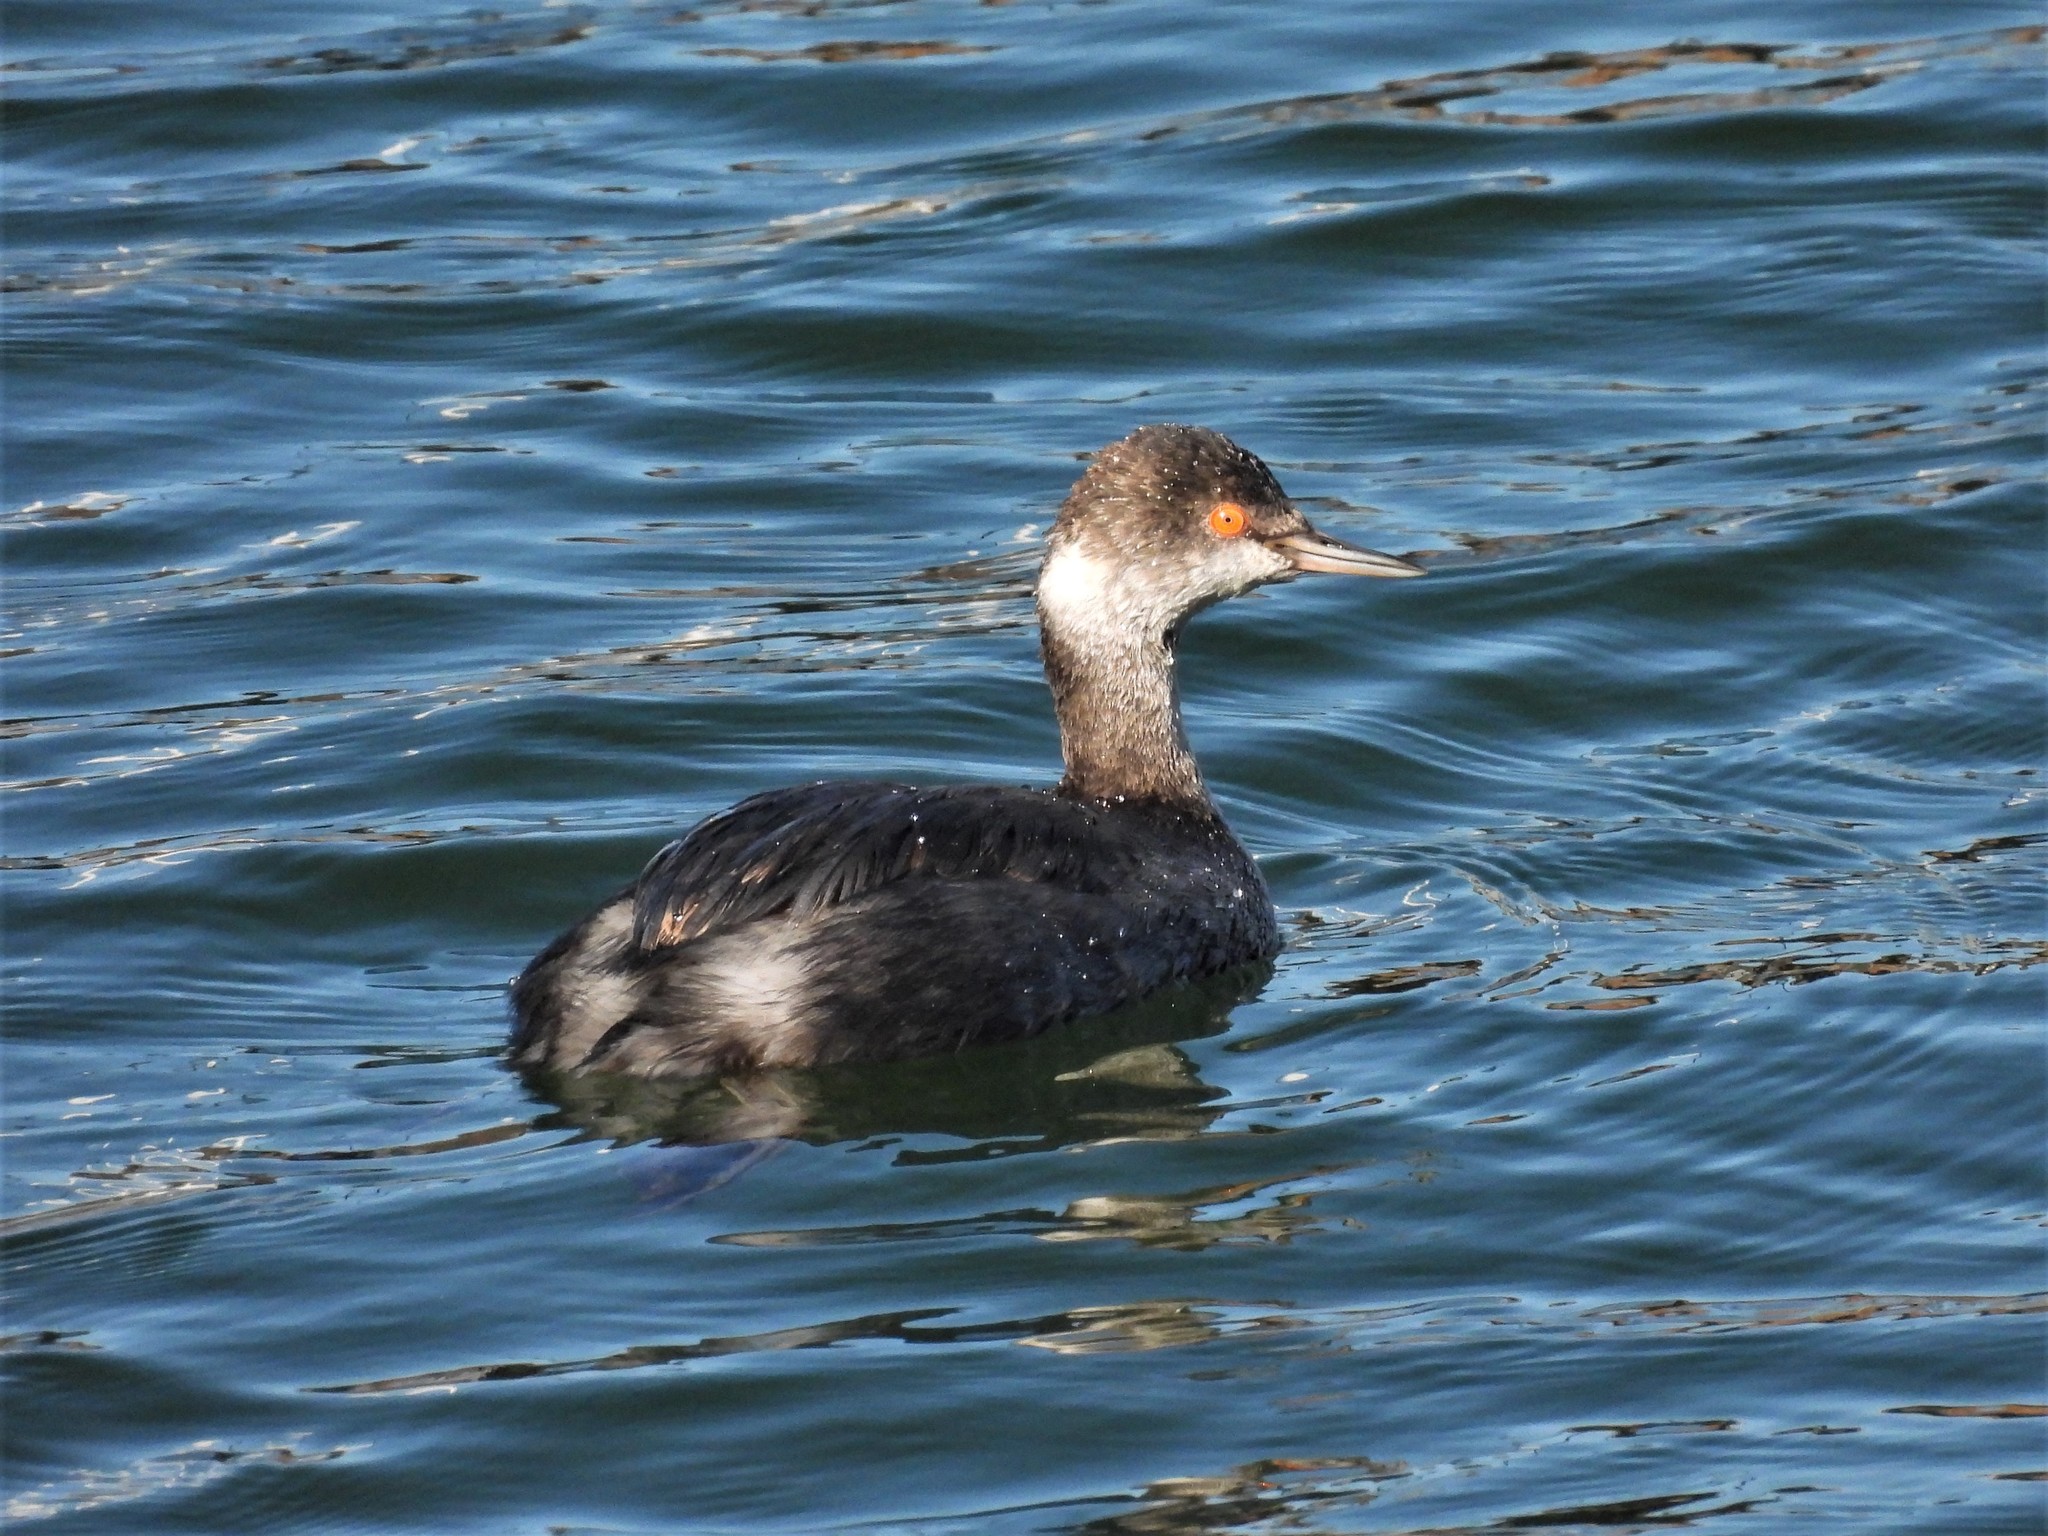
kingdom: Animalia
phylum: Chordata
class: Aves
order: Podicipediformes
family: Podicipedidae
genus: Podiceps
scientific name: Podiceps nigricollis
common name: Black-necked grebe
